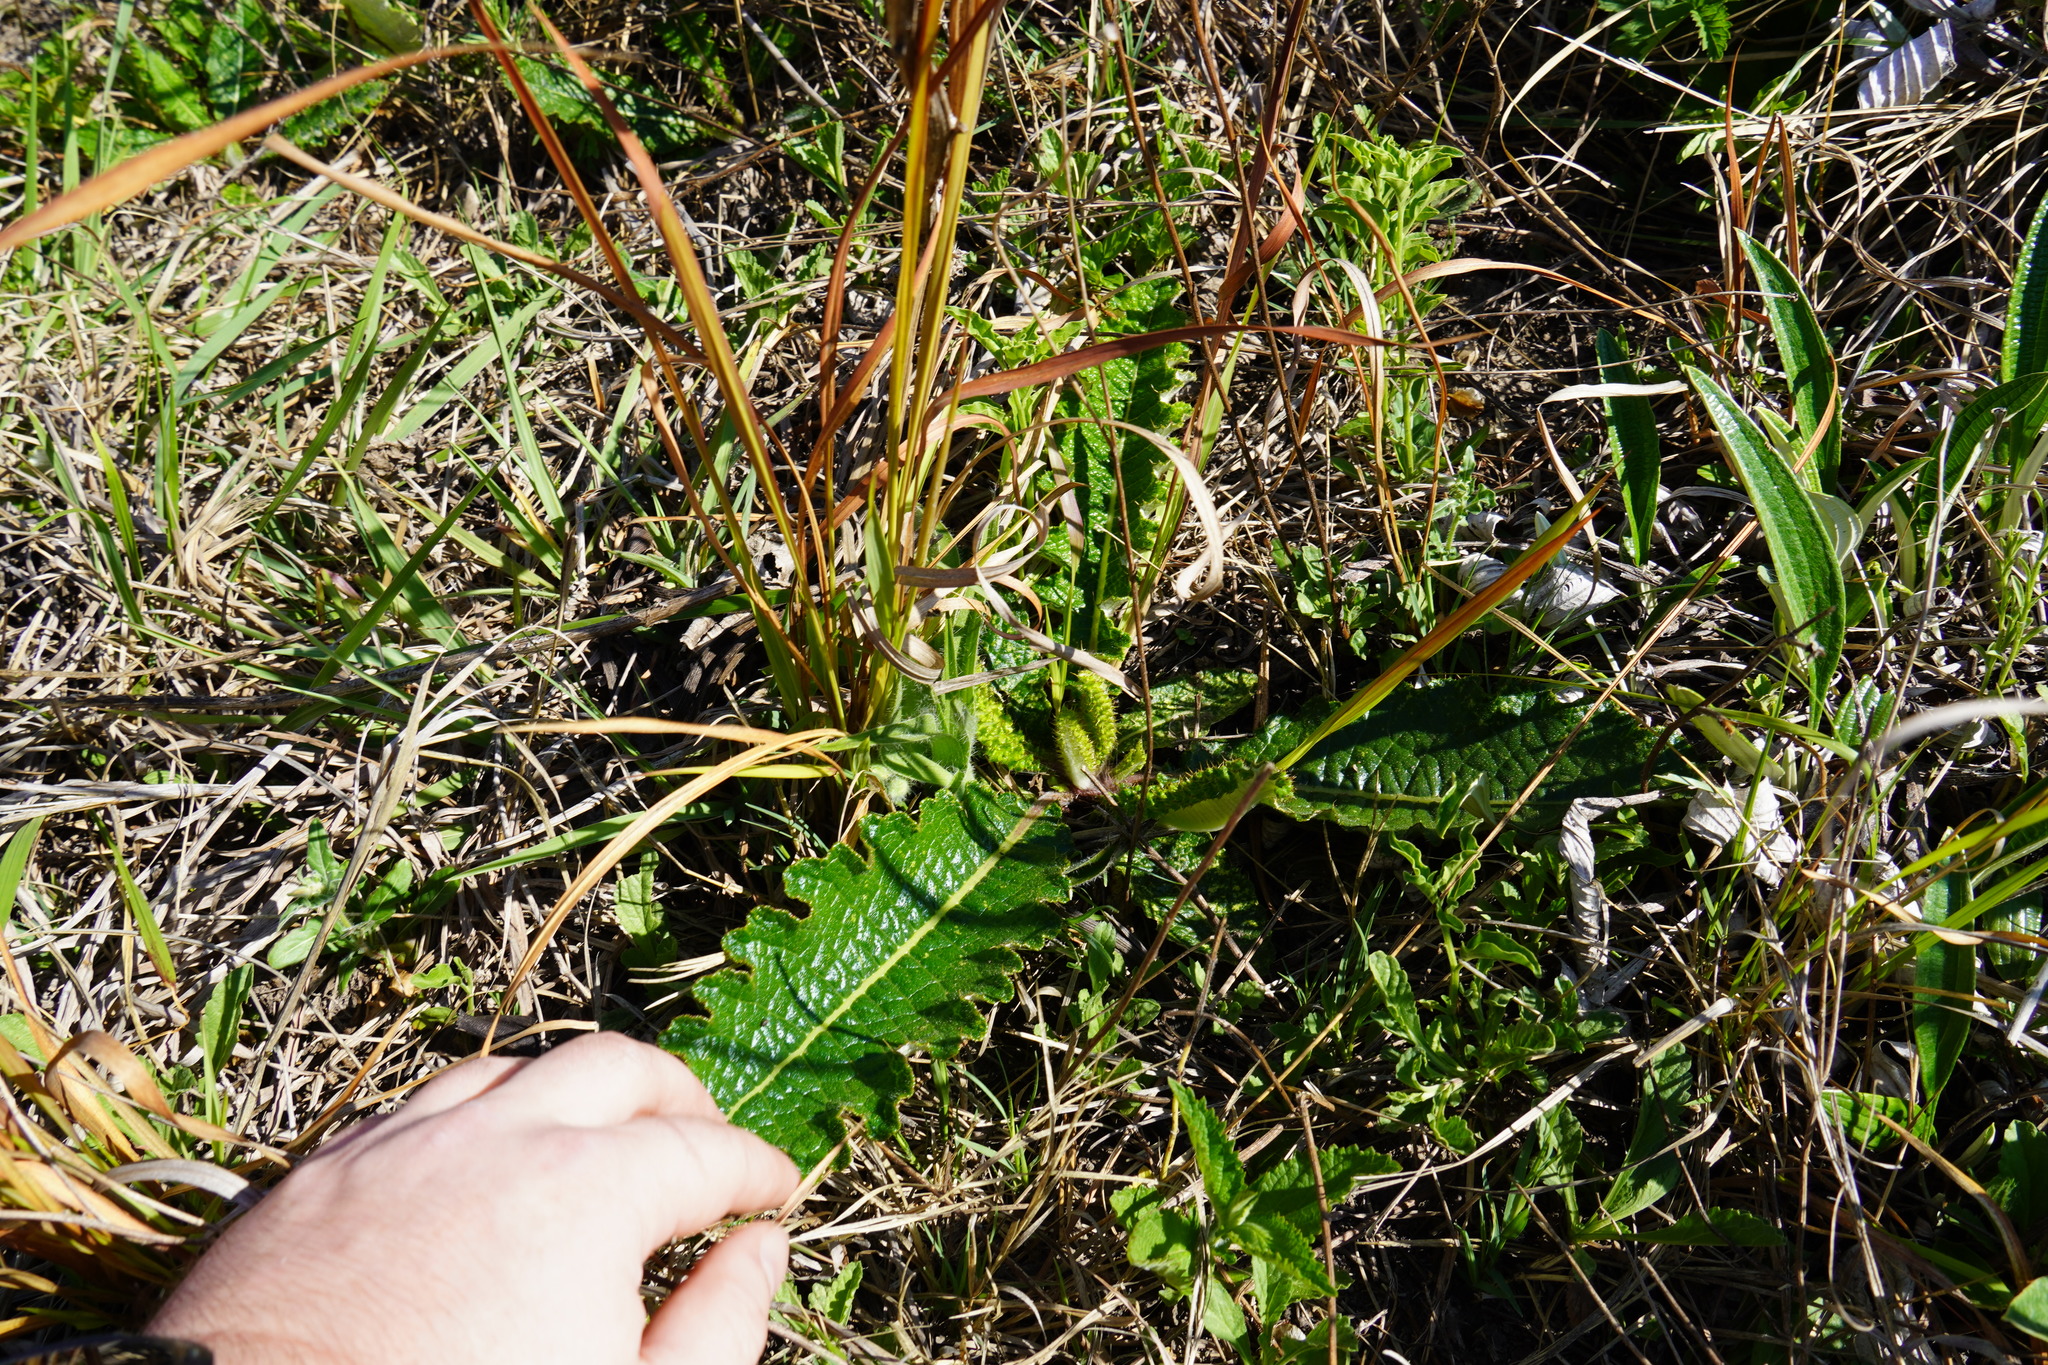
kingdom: Plantae
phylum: Tracheophyta
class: Magnoliopsida
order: Asterales
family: Asteraceae
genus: Berkheya
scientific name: Berkheya radula
